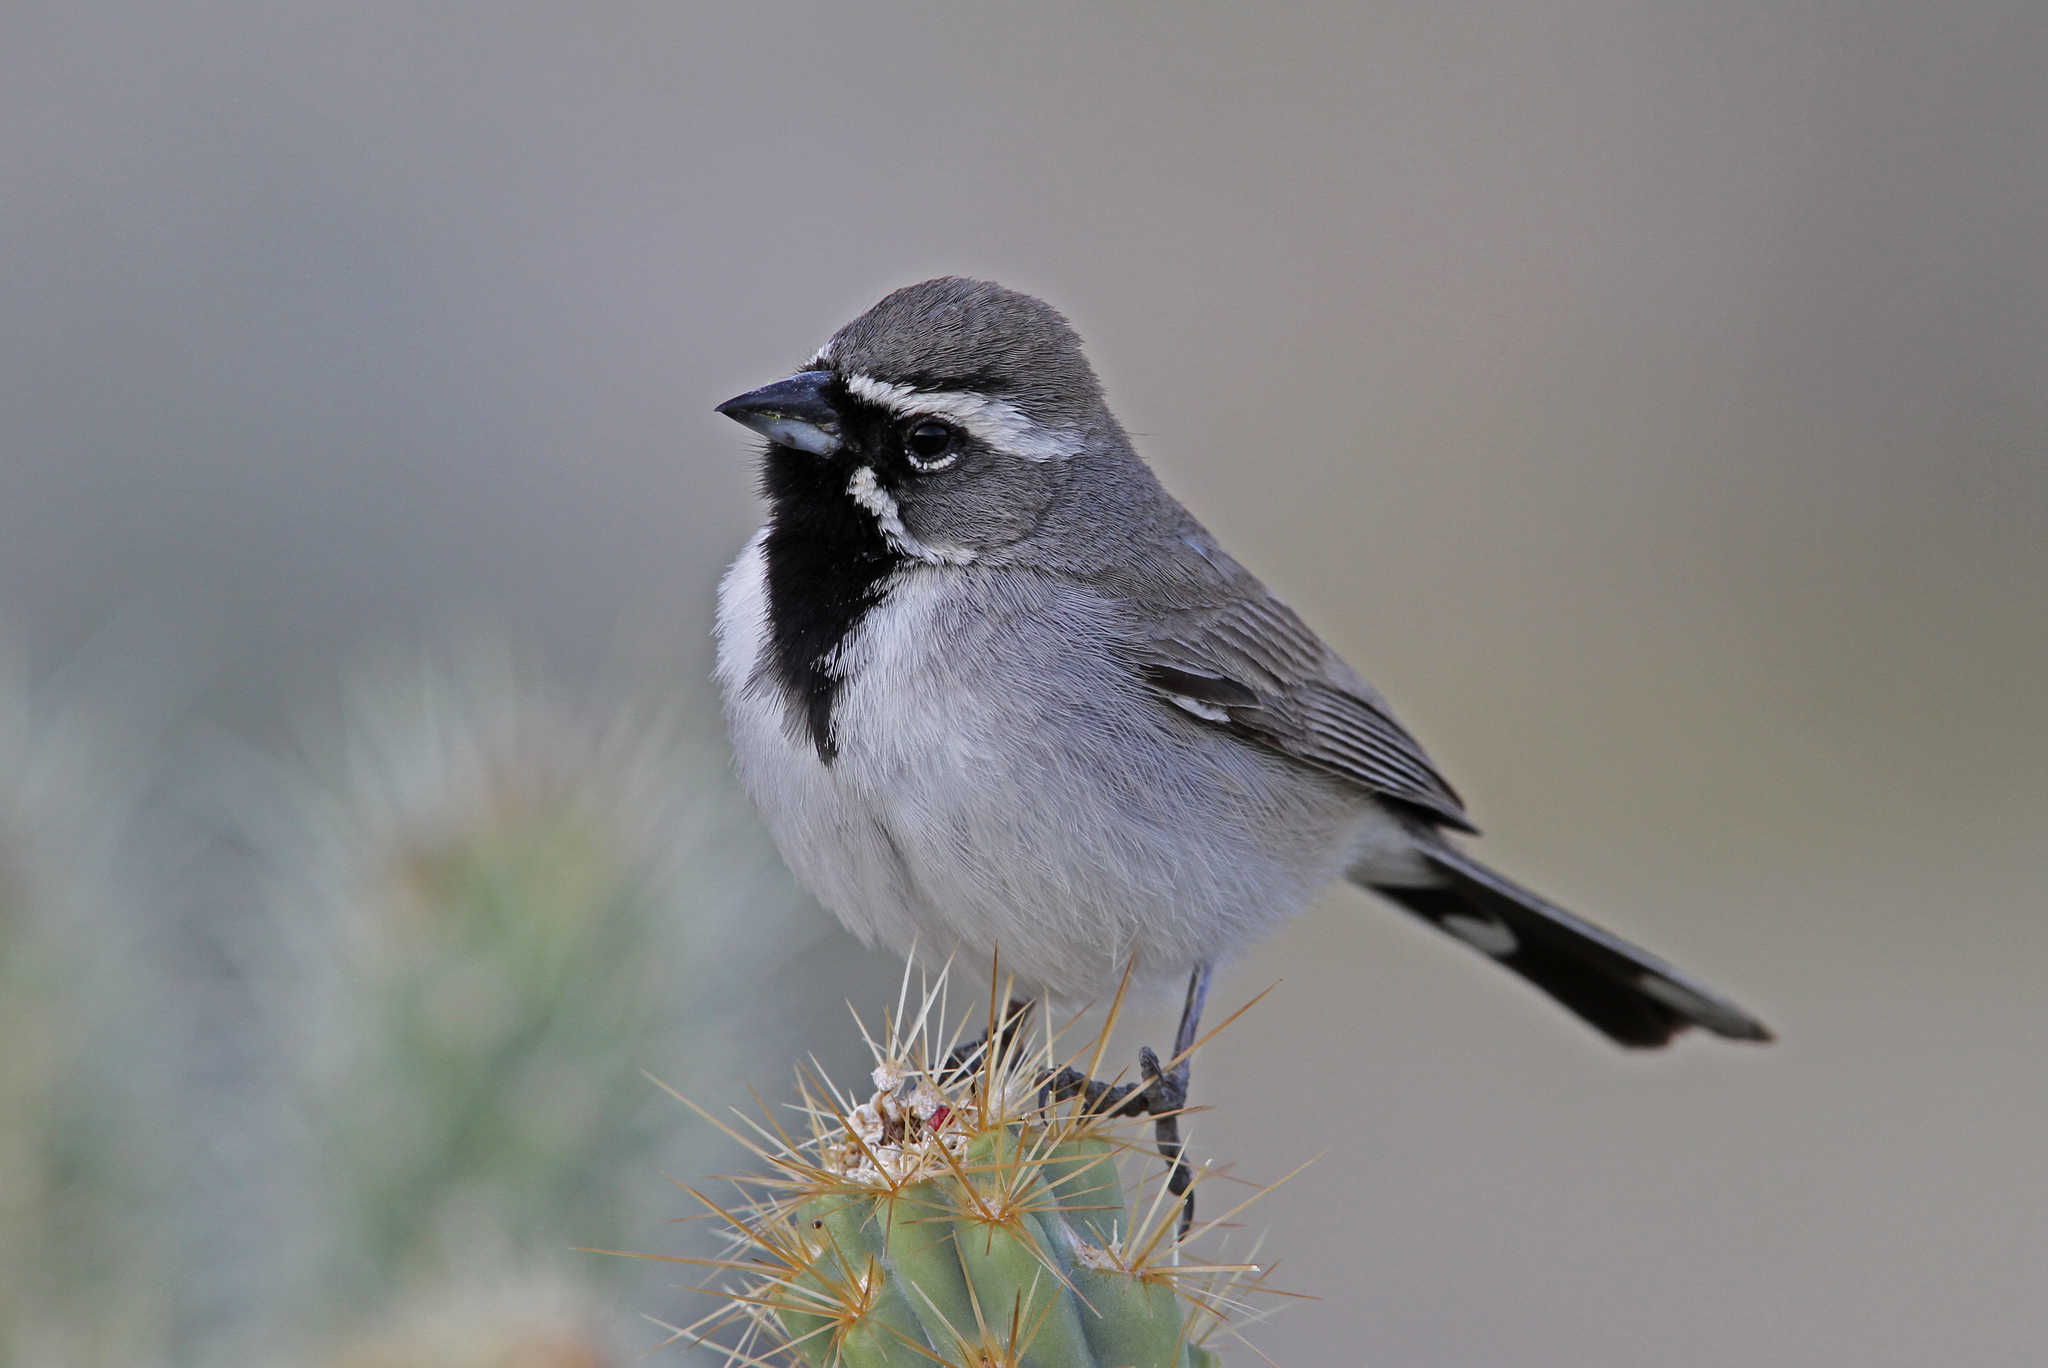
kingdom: Animalia
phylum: Chordata
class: Aves
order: Passeriformes
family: Passerellidae
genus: Amphispiza
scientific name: Amphispiza bilineata
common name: Black-throated sparrow
